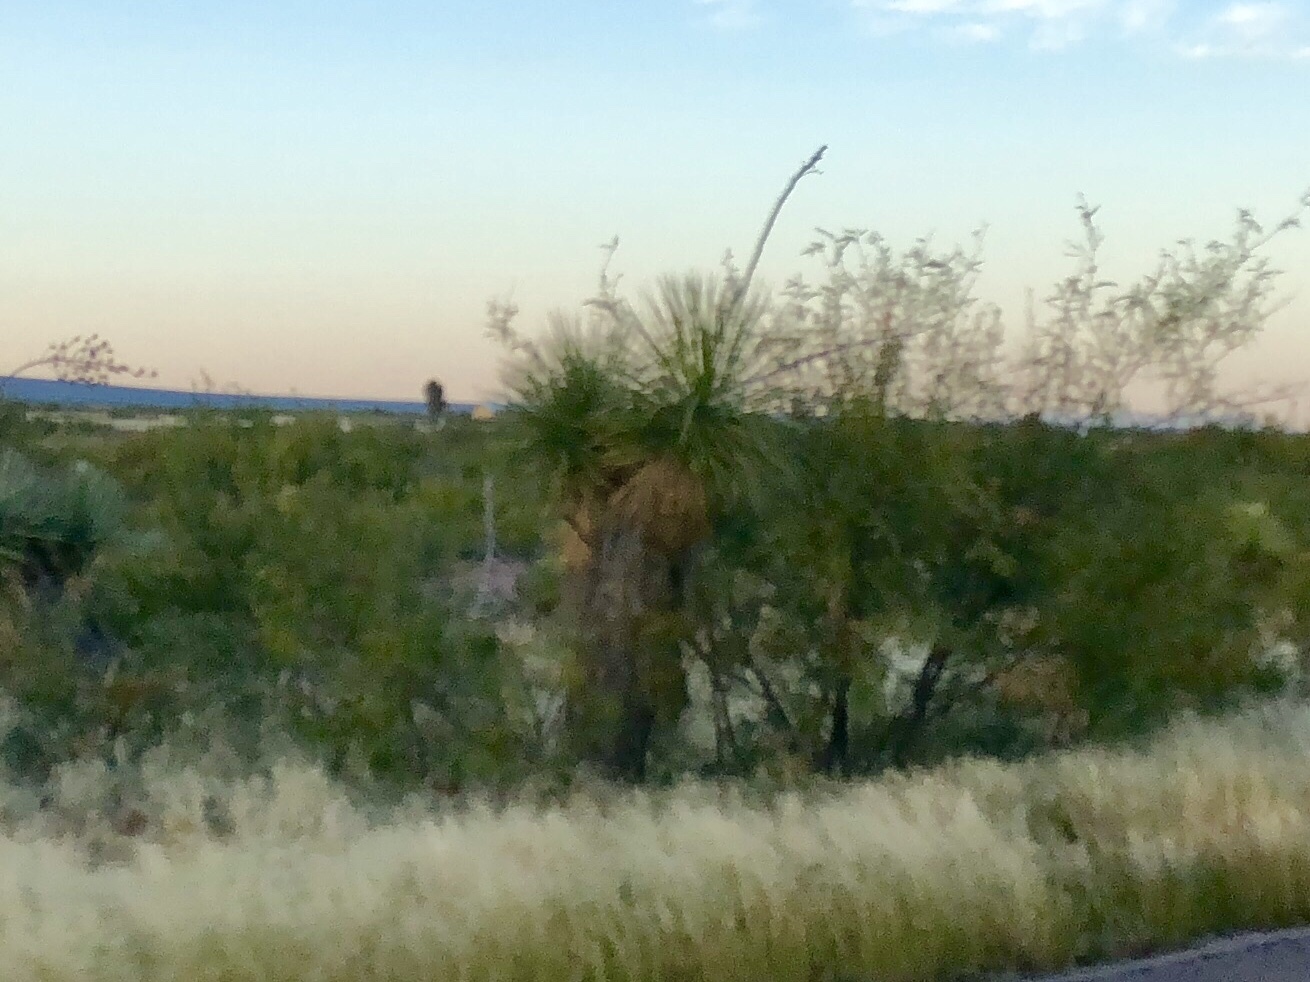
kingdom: Plantae
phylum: Tracheophyta
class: Liliopsida
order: Asparagales
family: Asparagaceae
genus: Yucca
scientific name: Yucca elata
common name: Palmella
